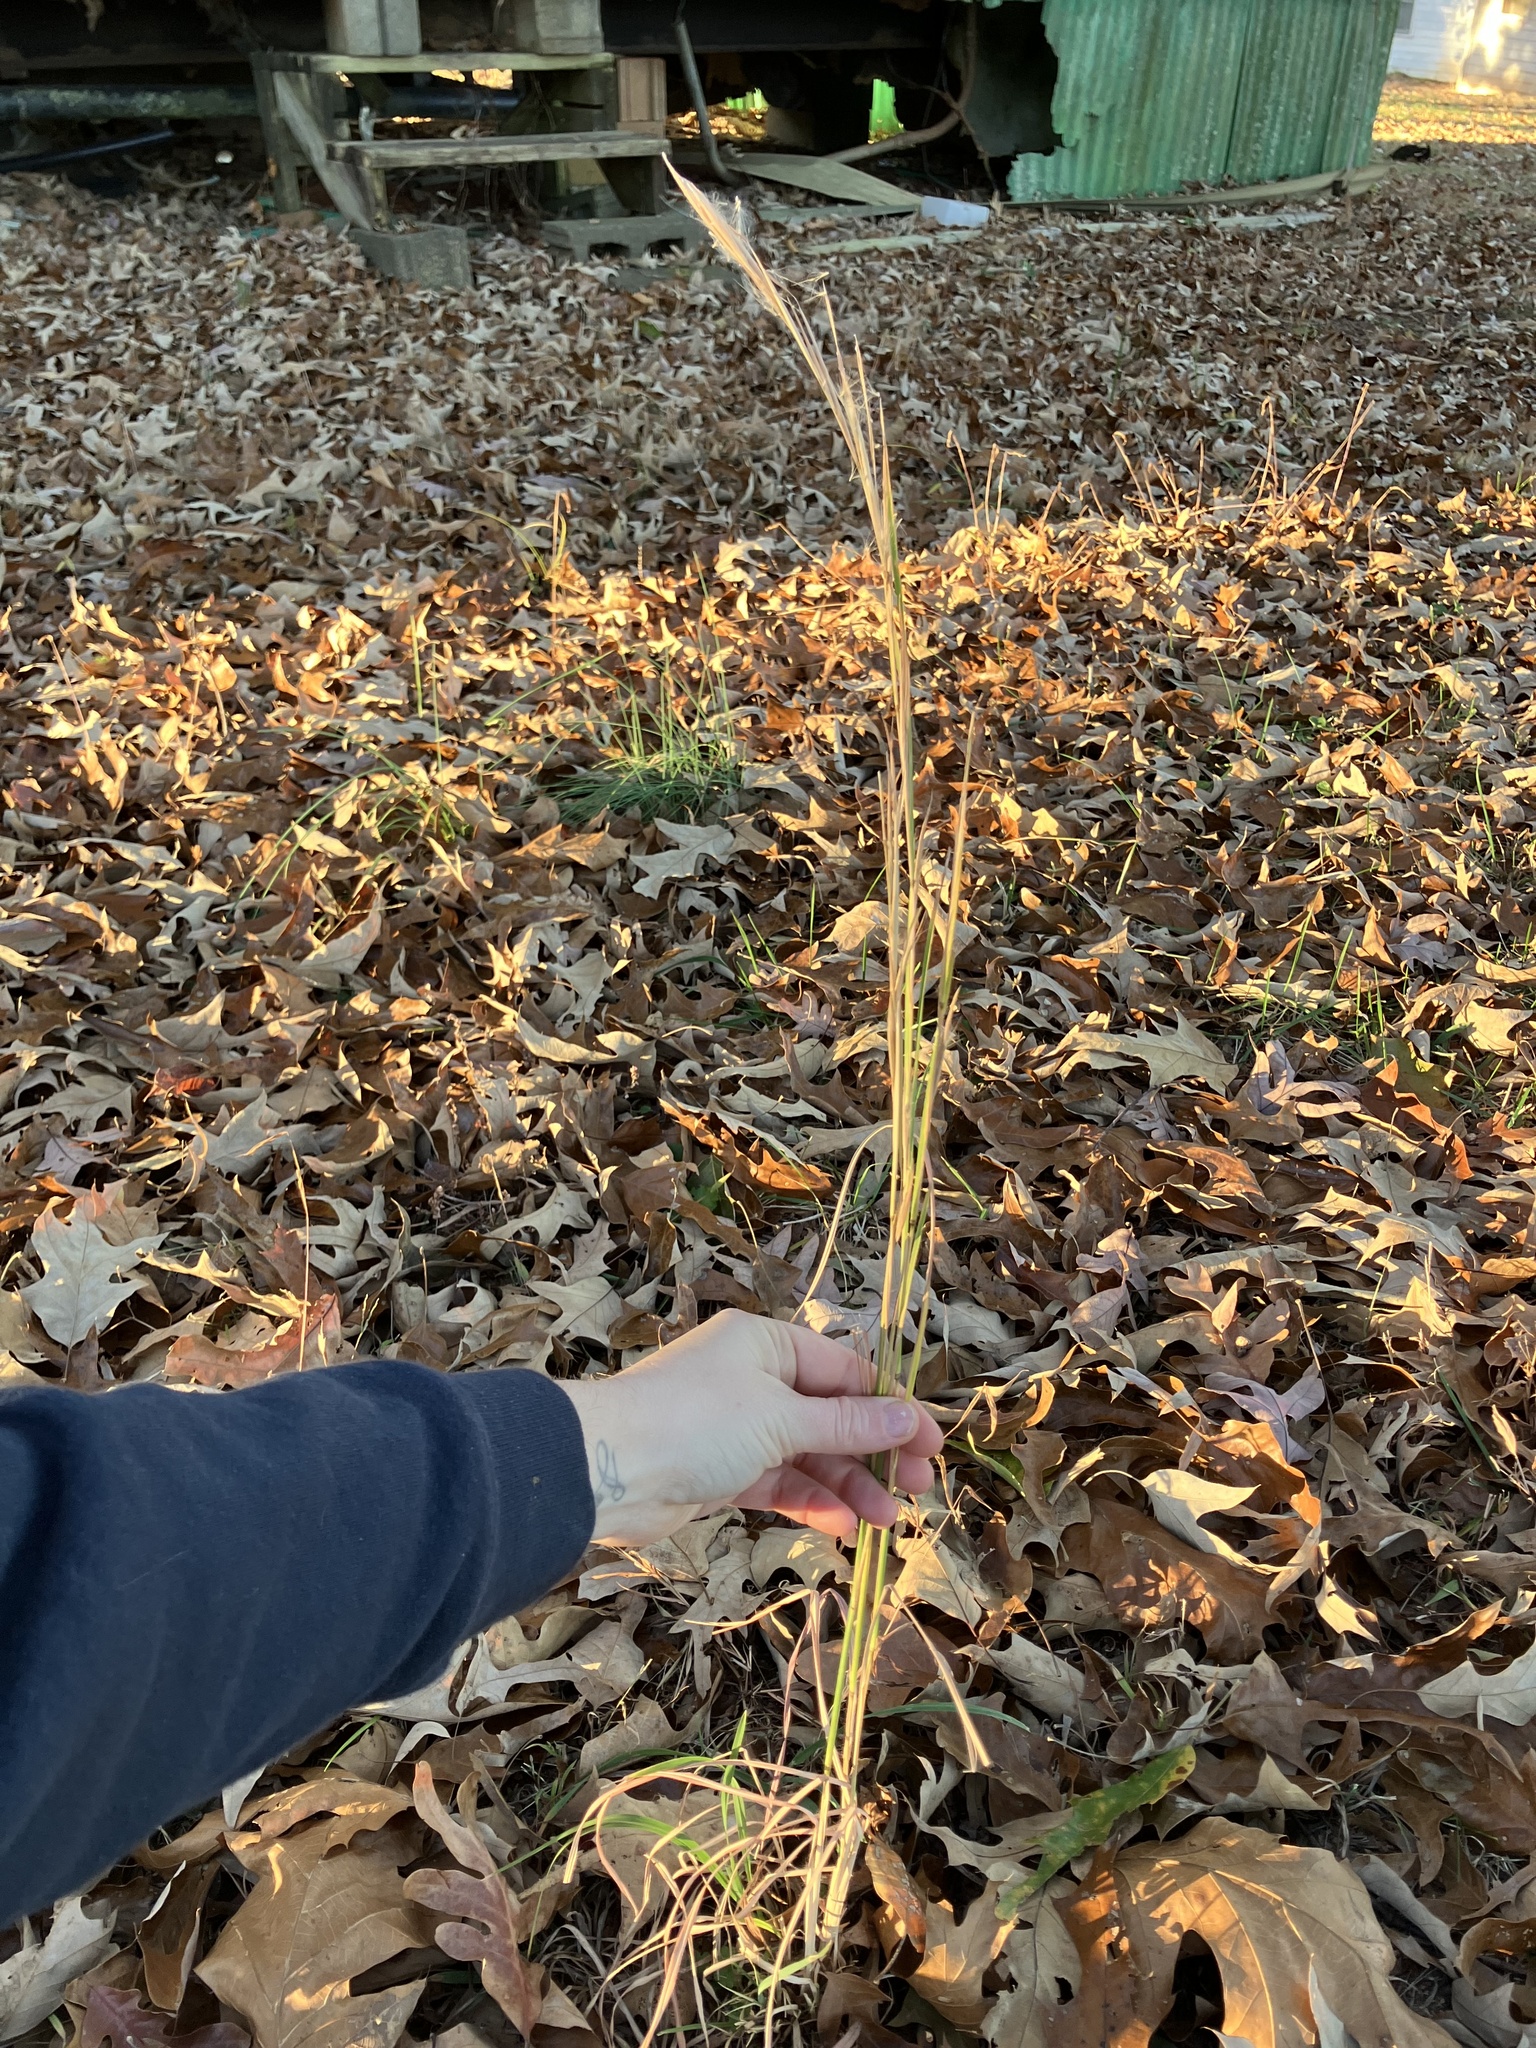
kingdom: Plantae
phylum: Tracheophyta
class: Liliopsida
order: Poales
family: Poaceae
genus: Andropogon
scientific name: Andropogon virginicus
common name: Broomsedge bluestem
